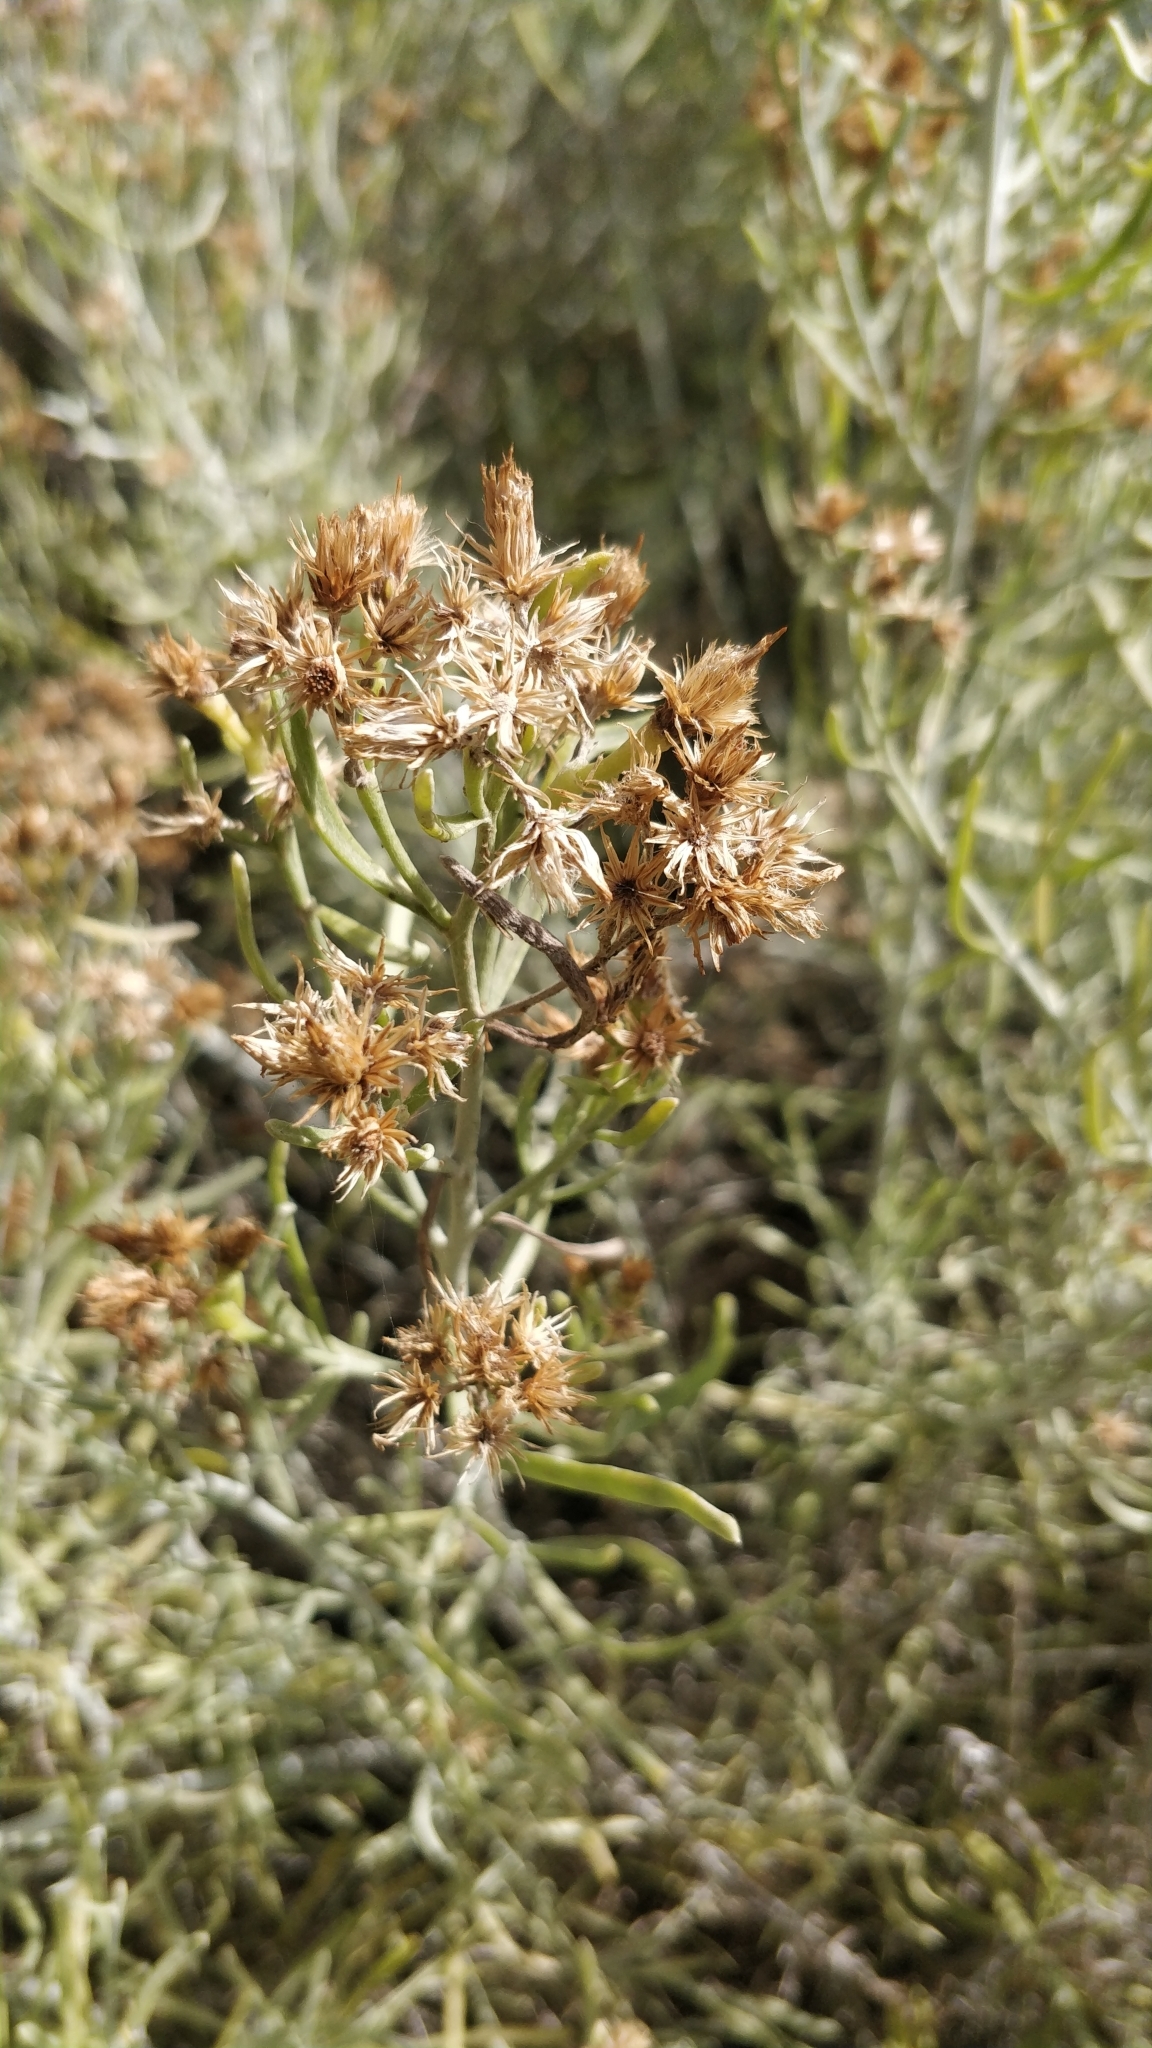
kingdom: Plantae
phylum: Tracheophyta
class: Magnoliopsida
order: Asterales
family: Asteraceae
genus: Schizogyne
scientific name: Schizogyne sericea
